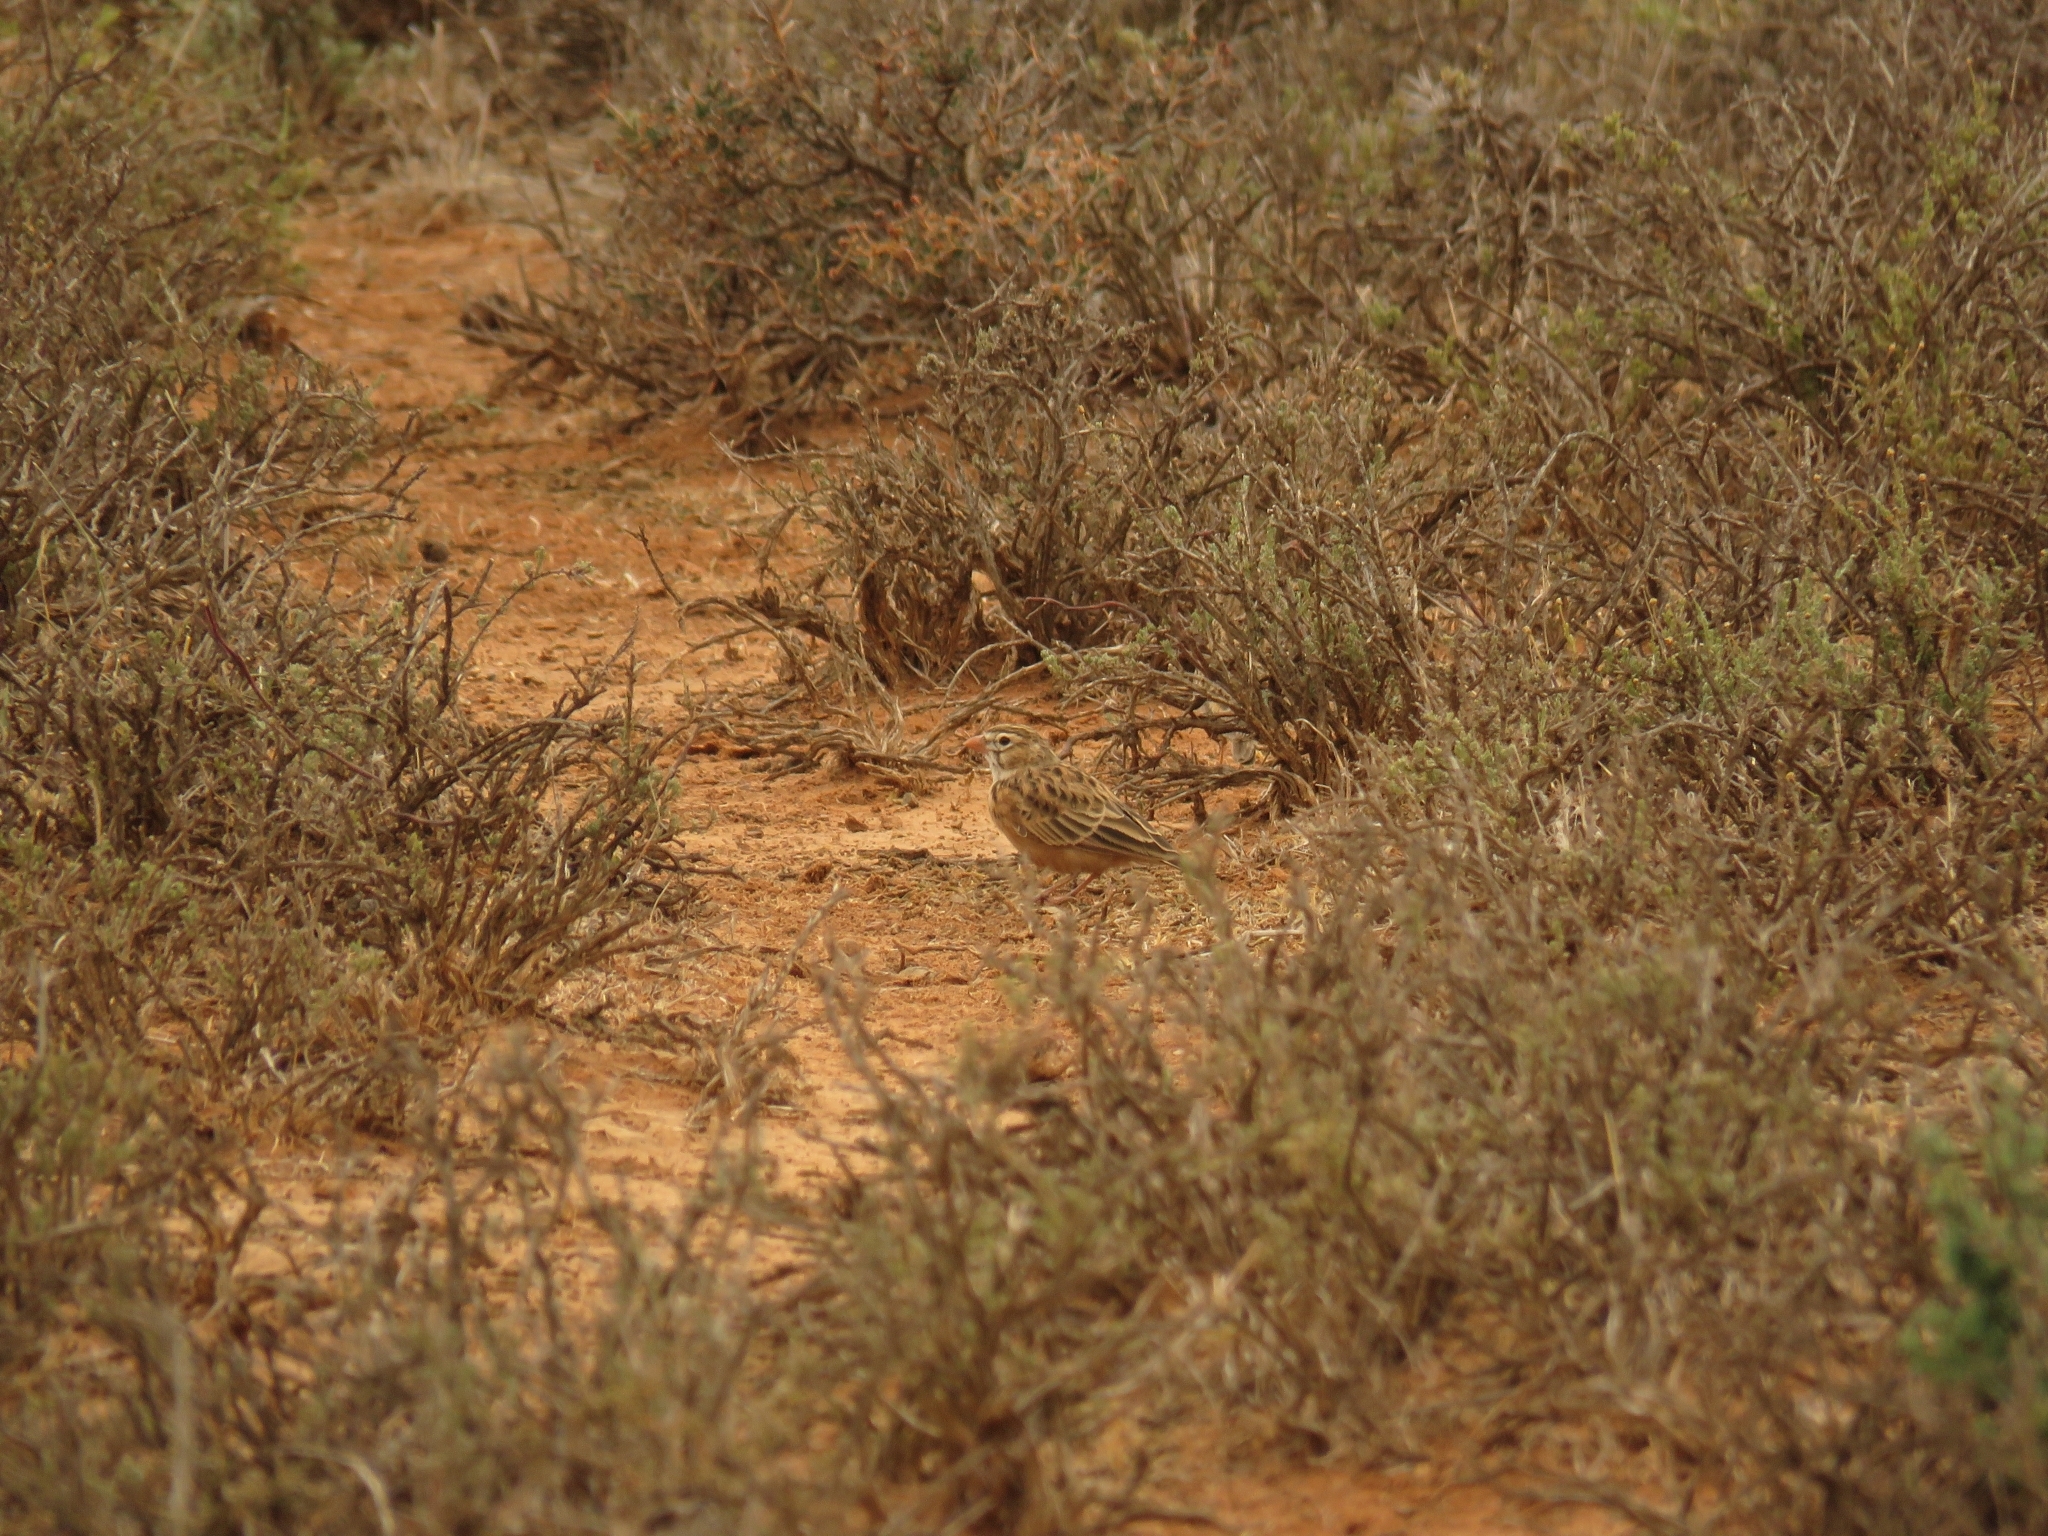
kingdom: Animalia
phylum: Chordata
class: Aves
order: Passeriformes
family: Alaudidae
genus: Spizocorys
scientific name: Spizocorys conirostris
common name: Pink-billed lark
